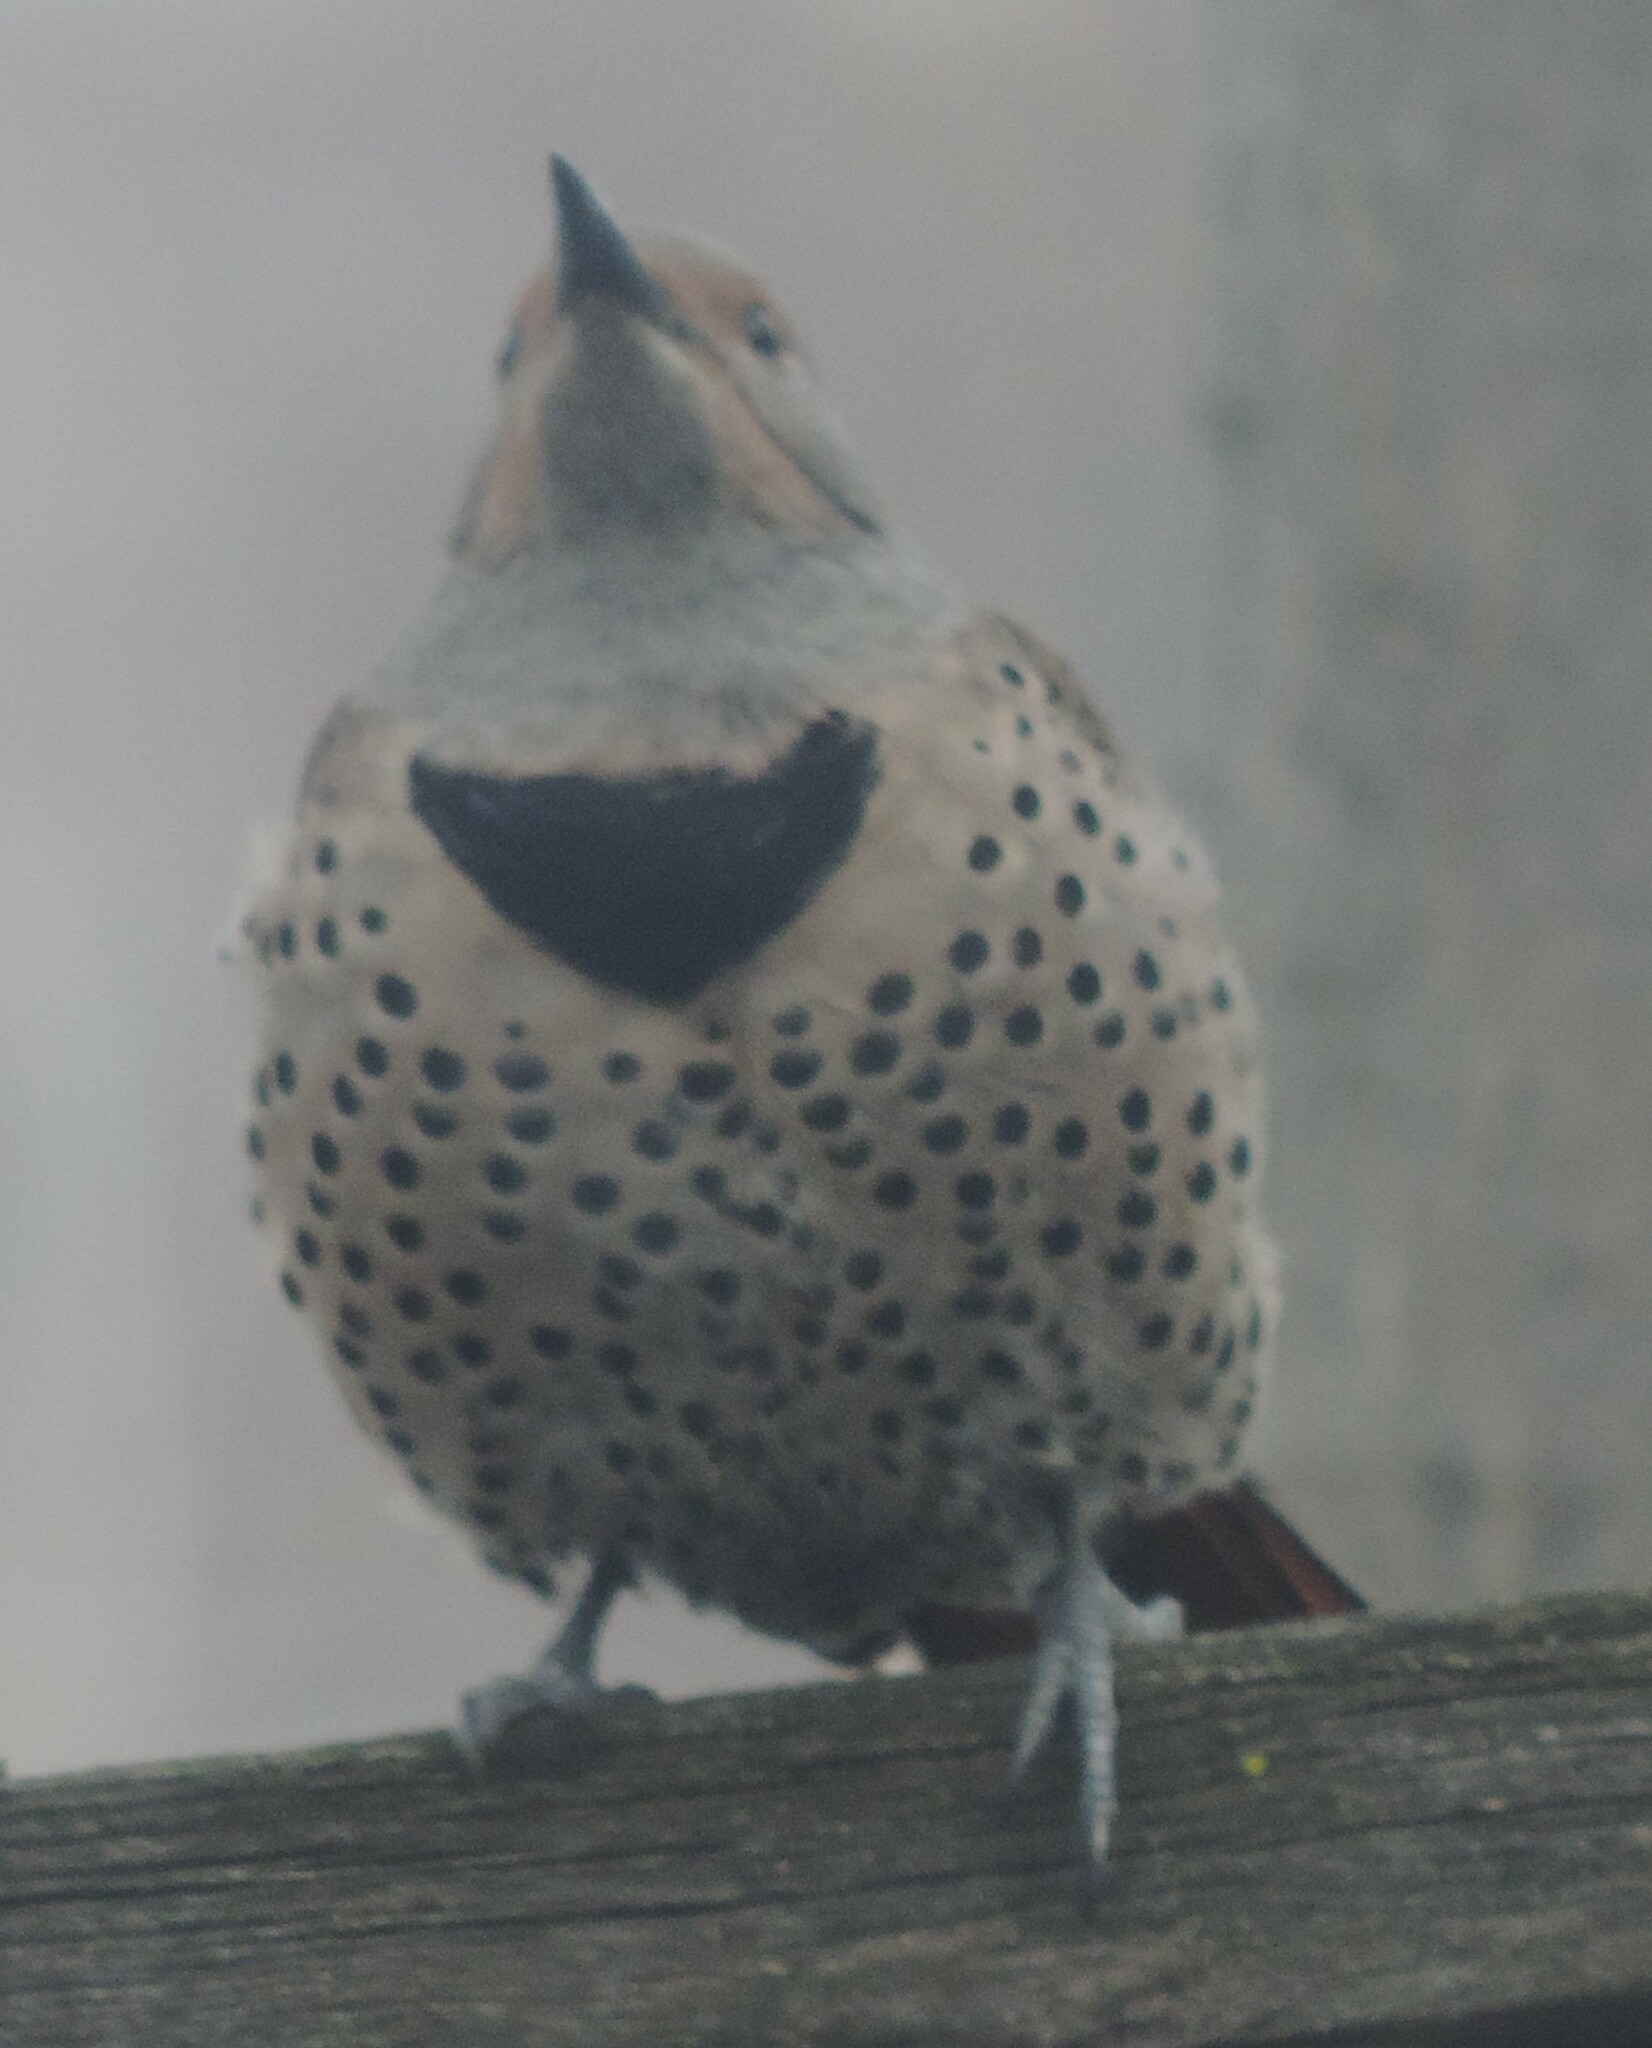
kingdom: Animalia
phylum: Chordata
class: Aves
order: Piciformes
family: Picidae
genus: Colaptes
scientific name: Colaptes auratus
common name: Northern flicker
